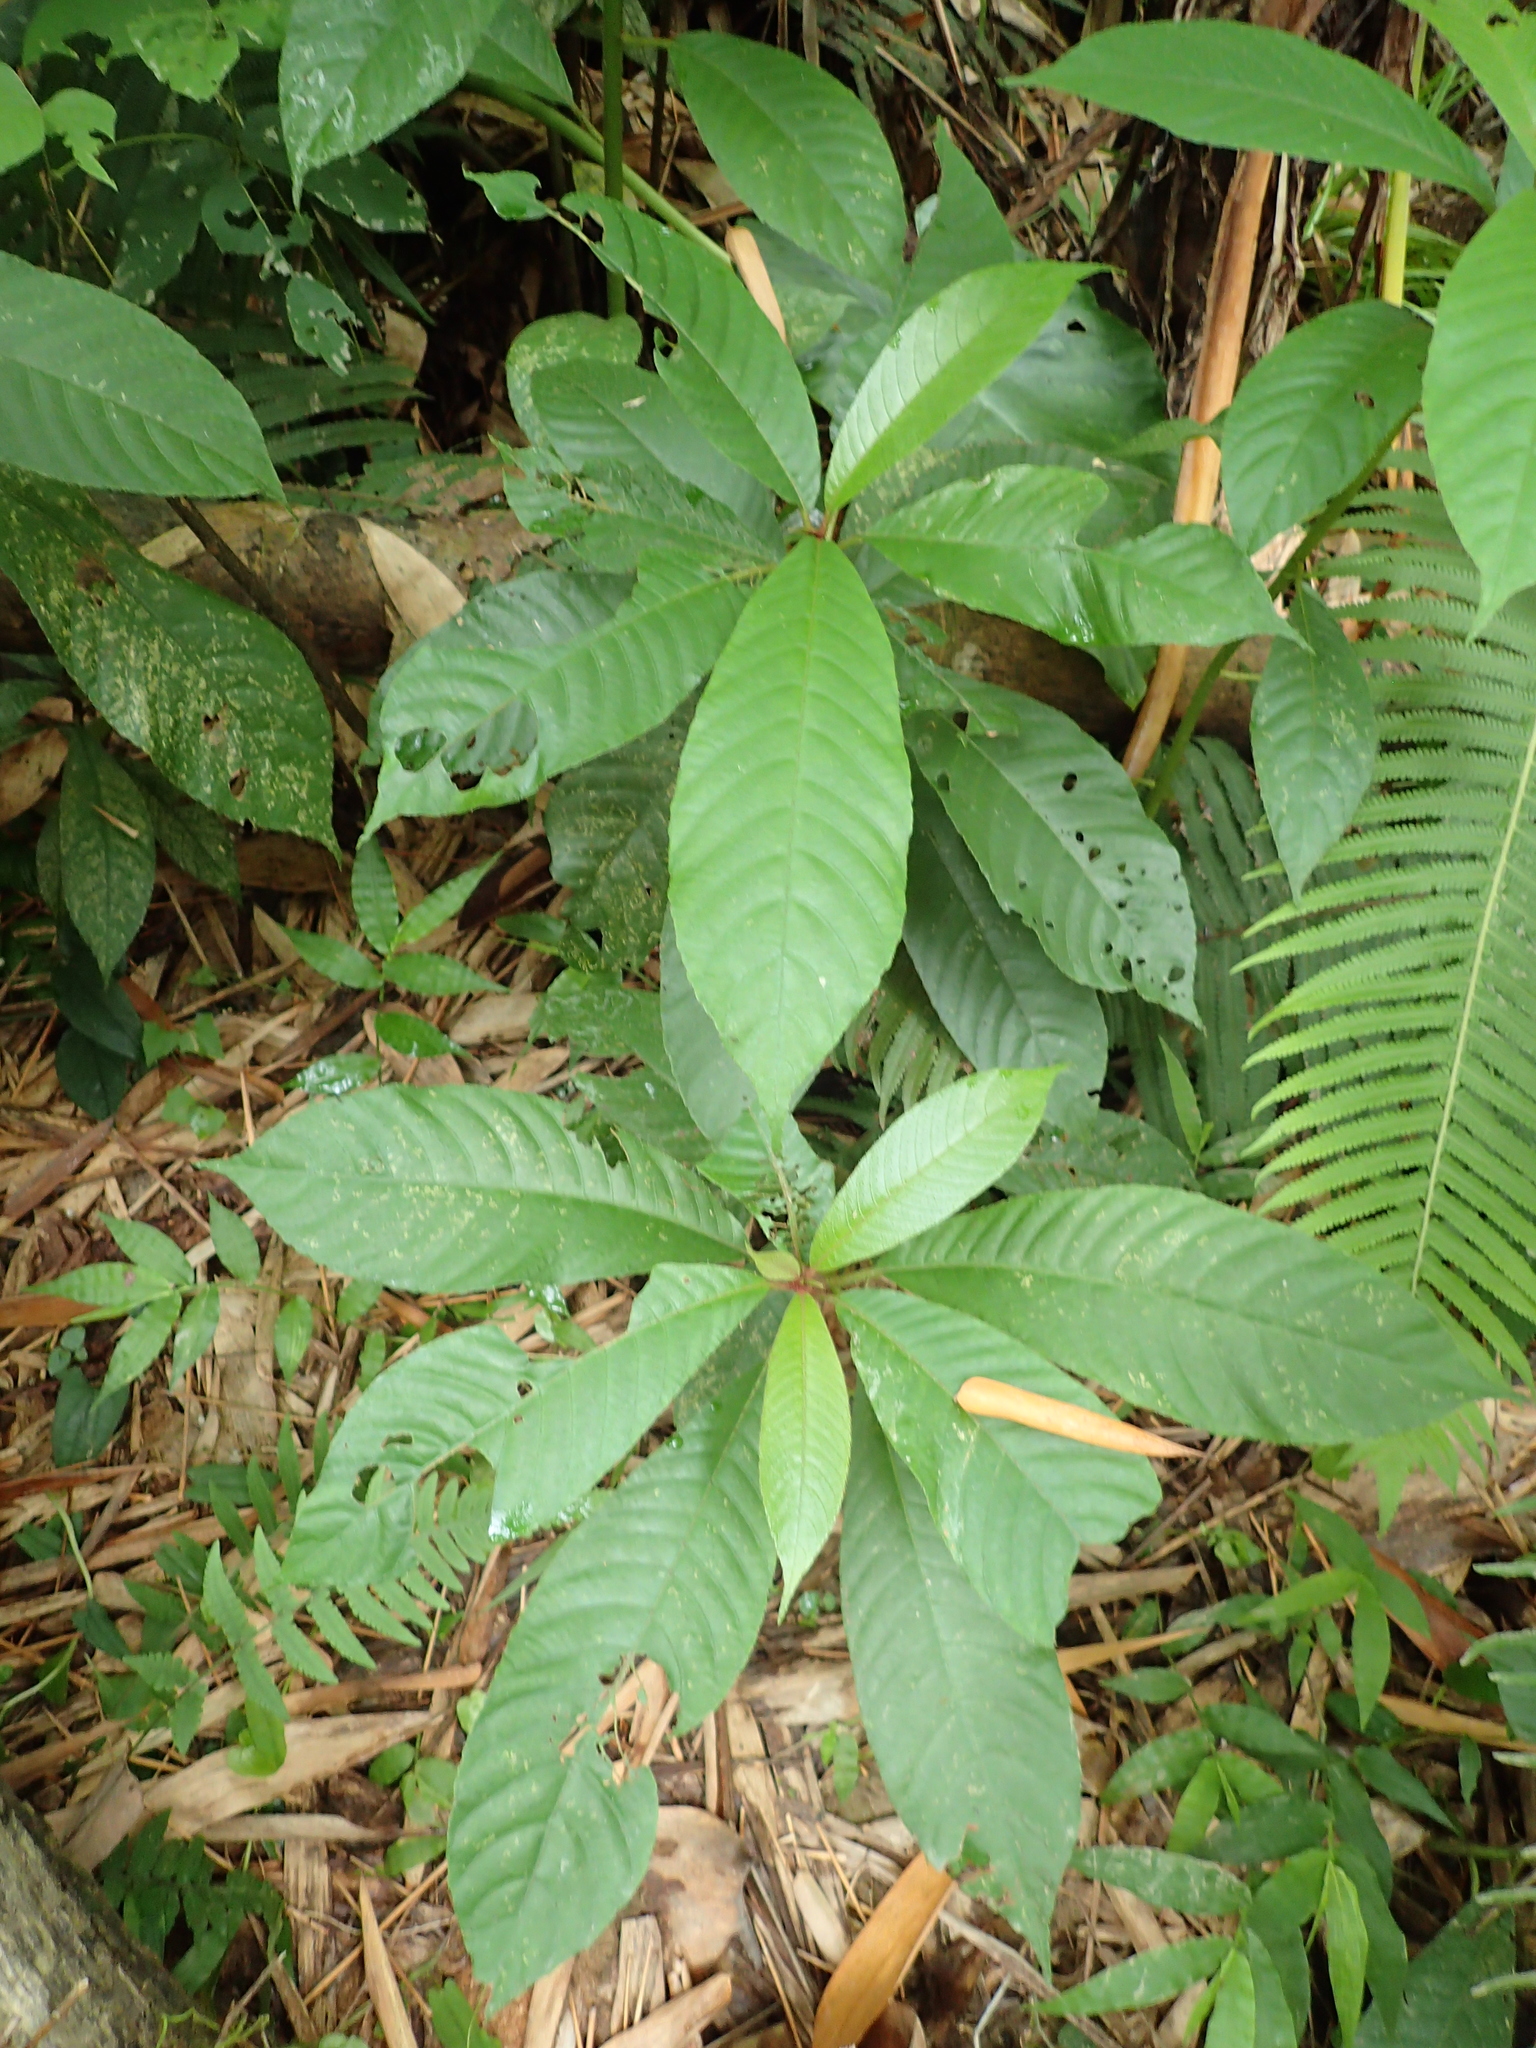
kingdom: Plantae
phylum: Tracheophyta
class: Magnoliopsida
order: Ericales
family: Actinidiaceae
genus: Saurauia
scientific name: Saurauia tristyla
